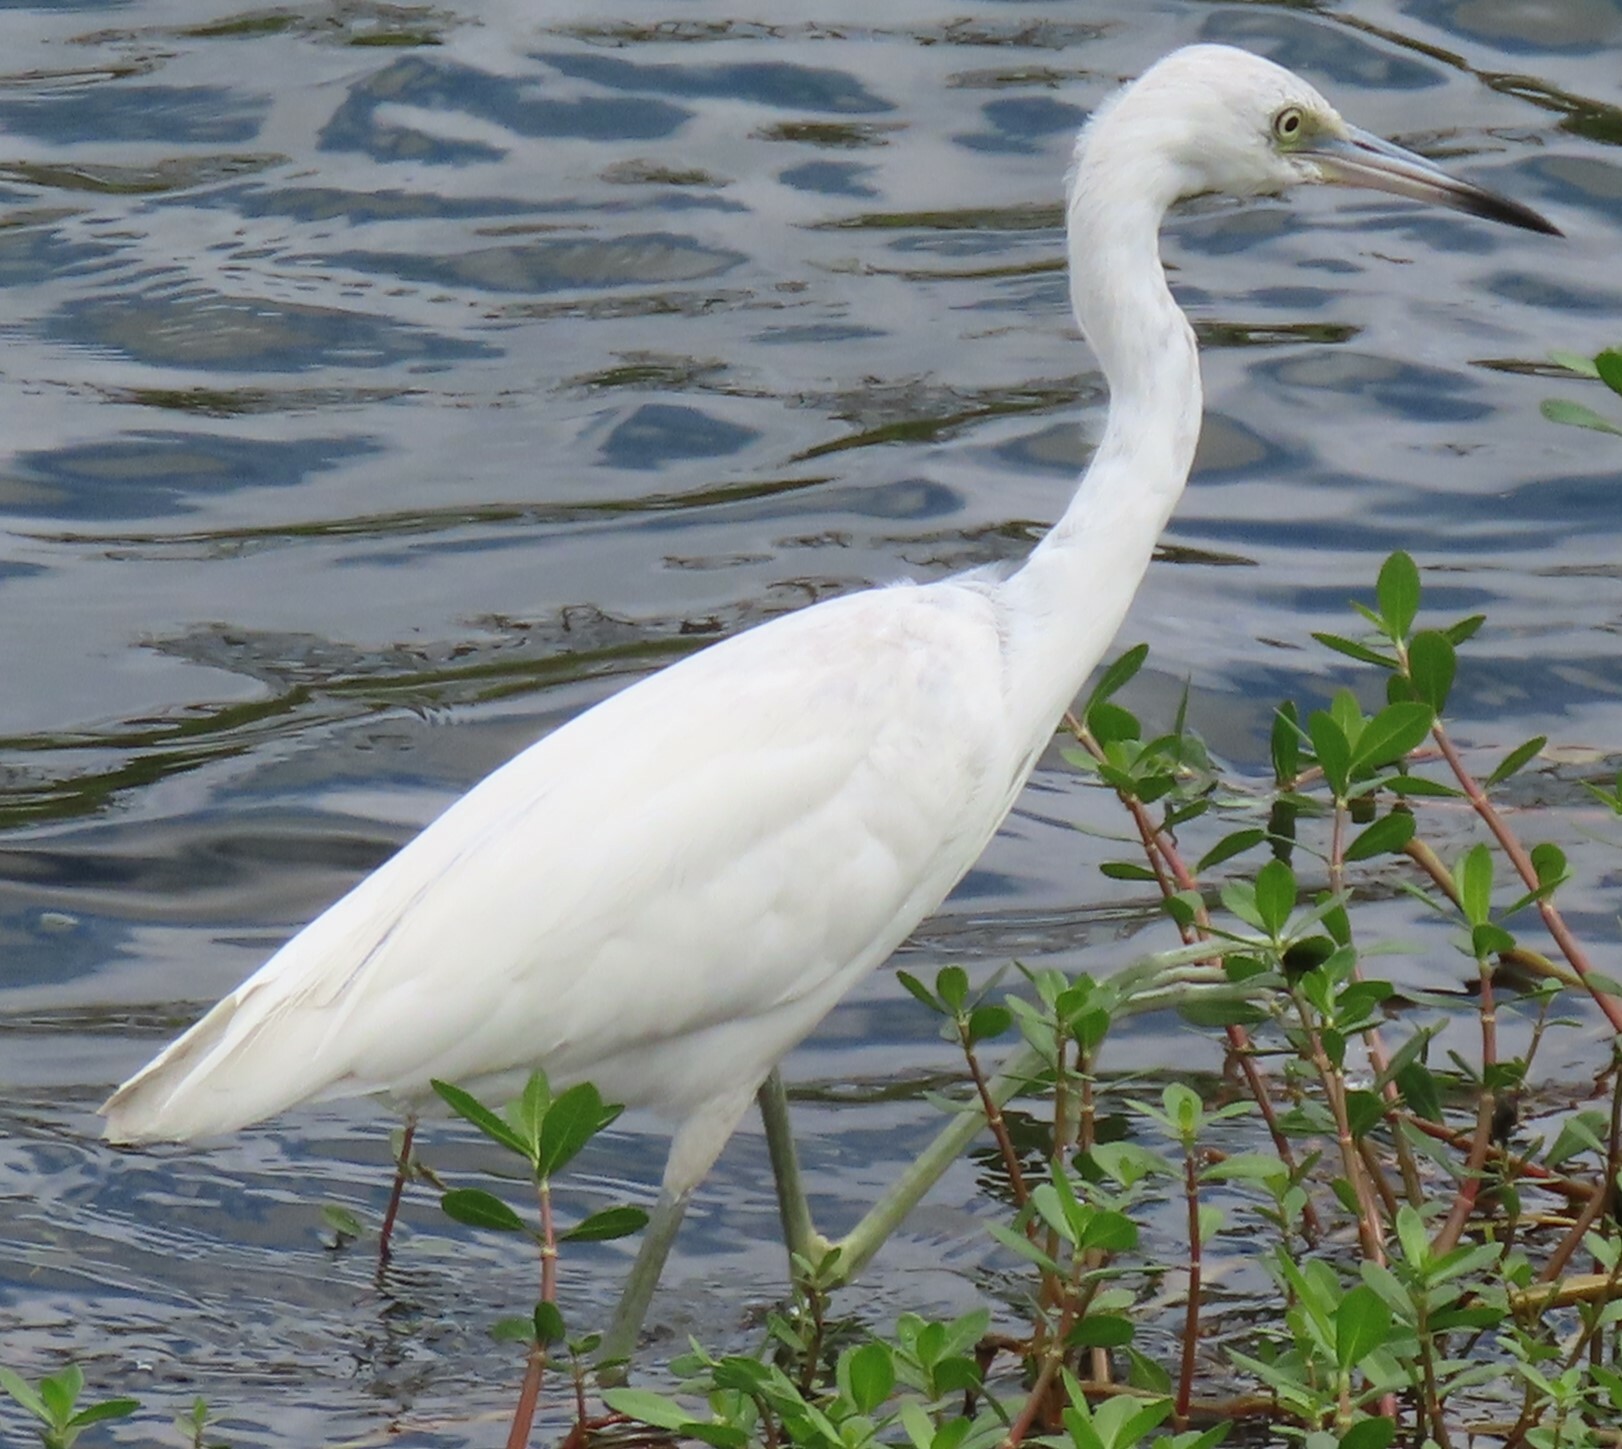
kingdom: Animalia
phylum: Chordata
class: Aves
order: Pelecaniformes
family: Ardeidae
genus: Egretta
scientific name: Egretta caerulea
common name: Little blue heron
